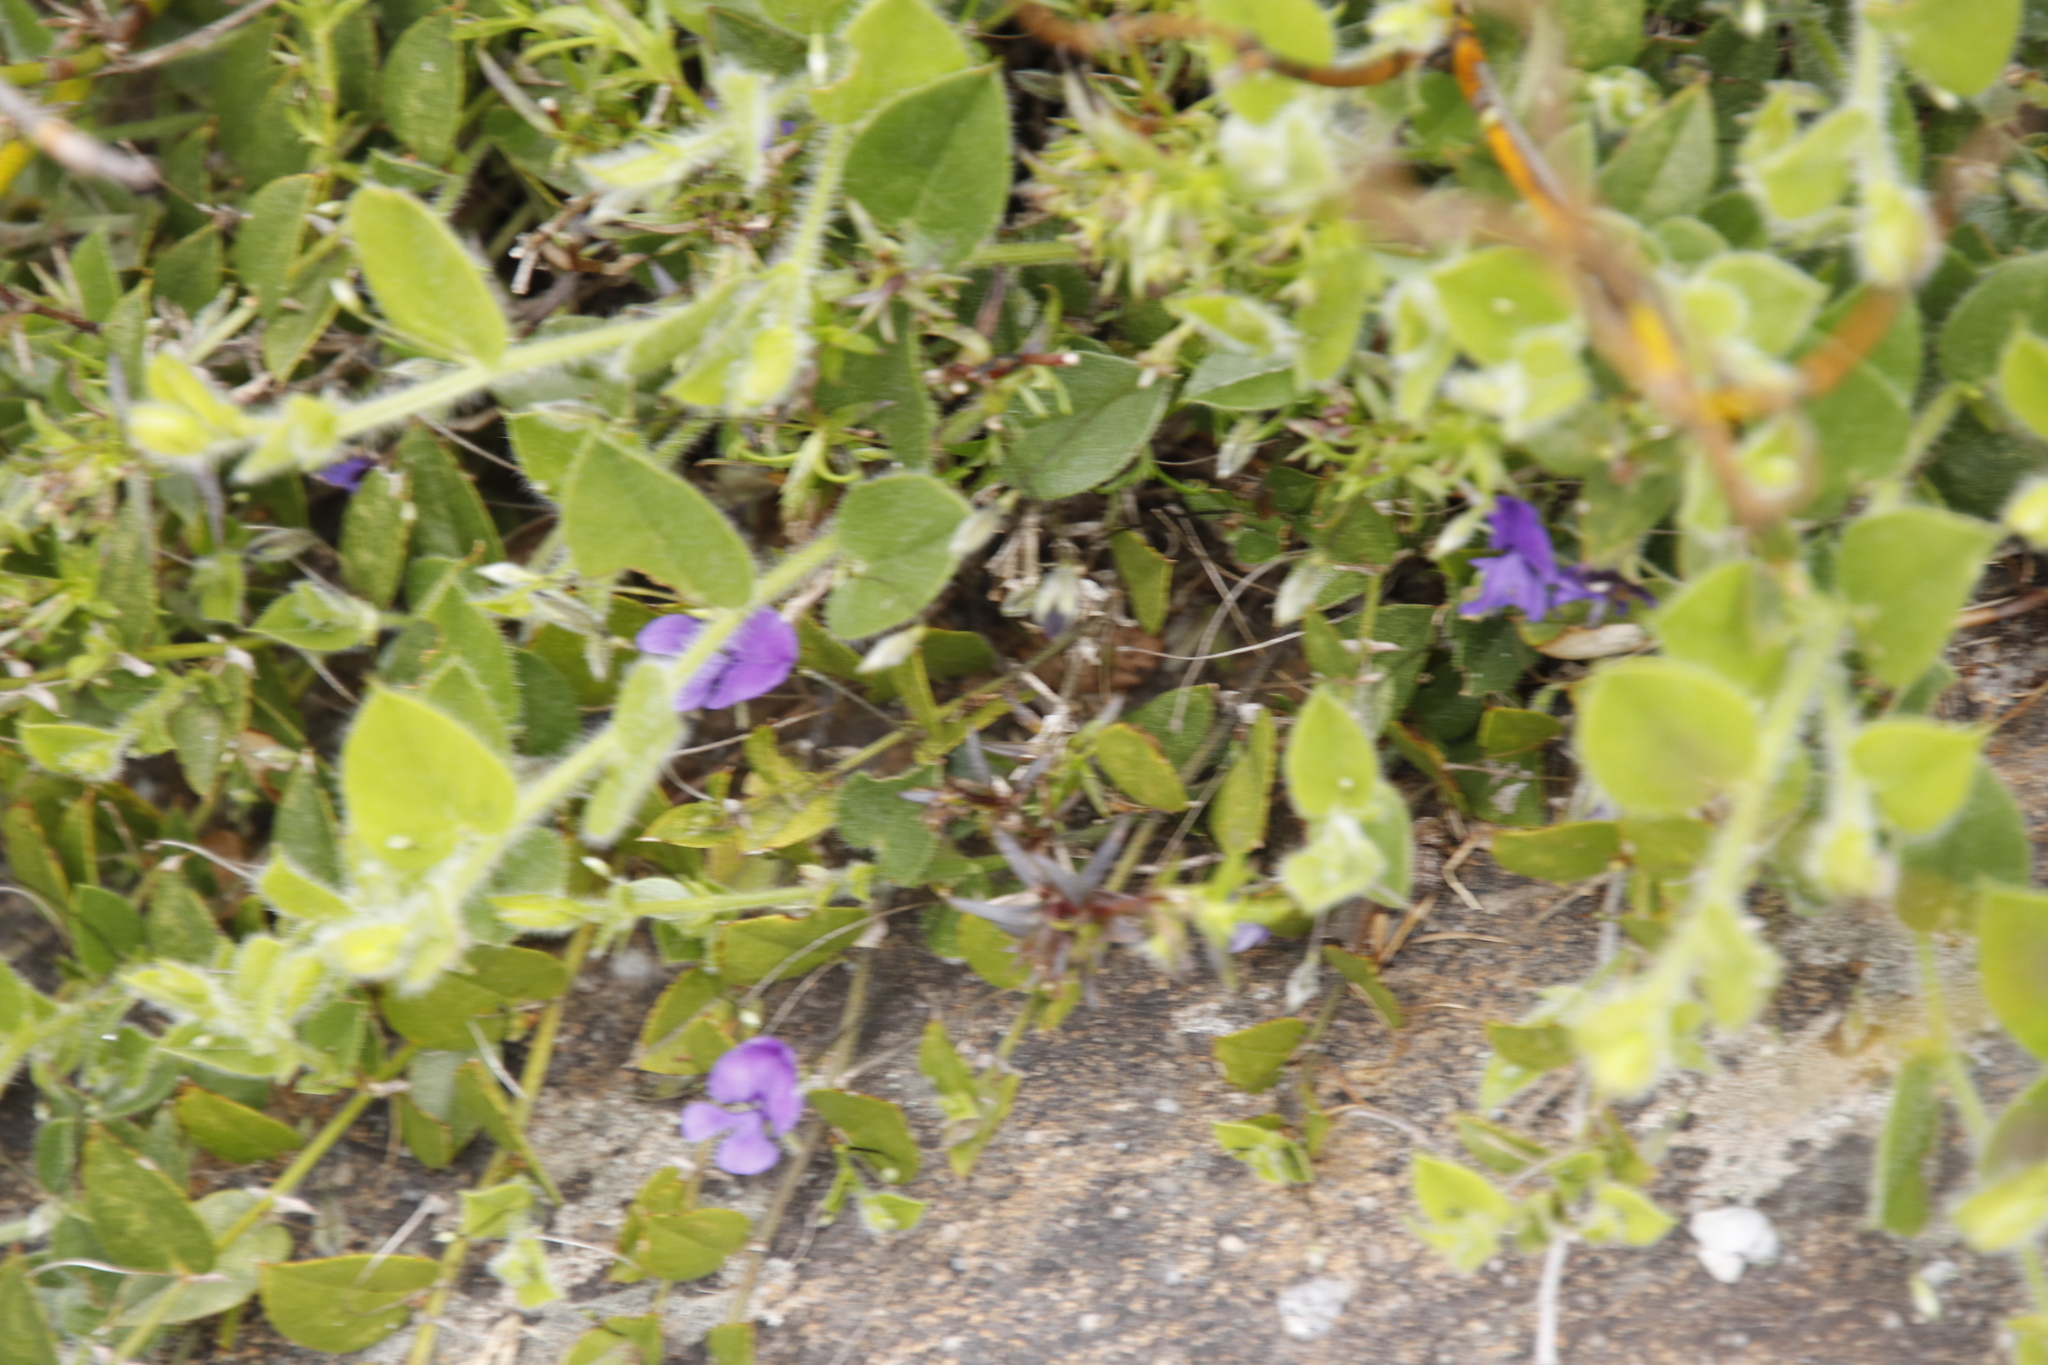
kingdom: Plantae
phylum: Tracheophyta
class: Magnoliopsida
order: Fabales
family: Fabaceae
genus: Psoralea
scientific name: Psoralea asarina
